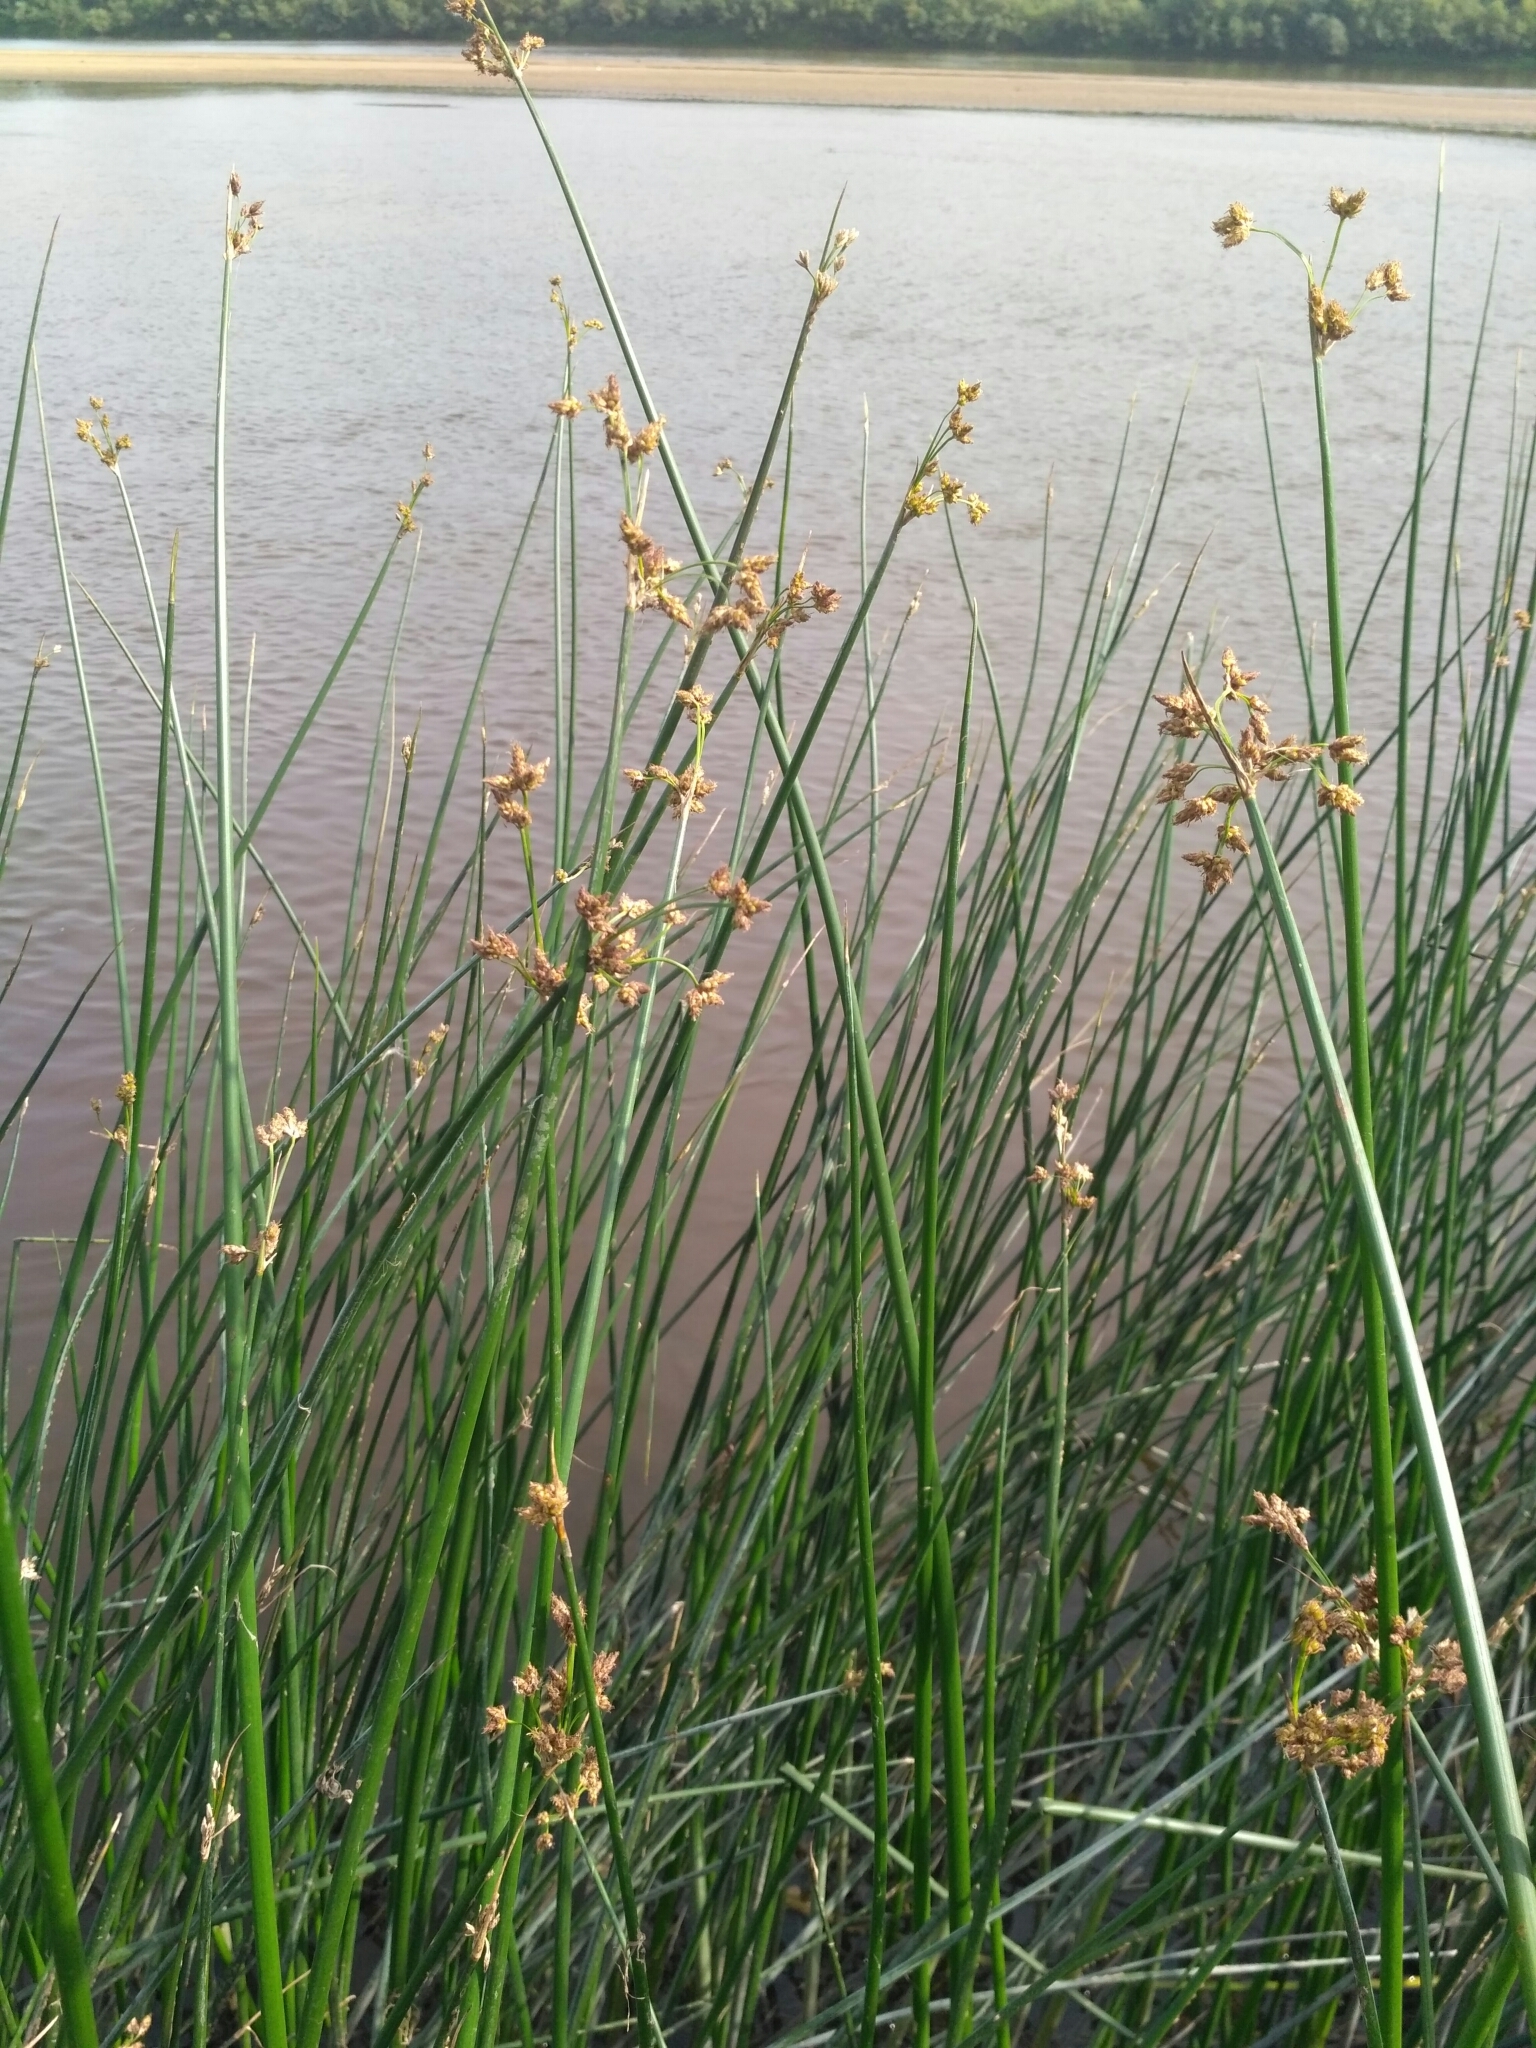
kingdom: Plantae
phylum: Tracheophyta
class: Liliopsida
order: Poales
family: Cyperaceae
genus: Schoenoplectus
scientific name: Schoenoplectus lacustris
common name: Common club-rush
